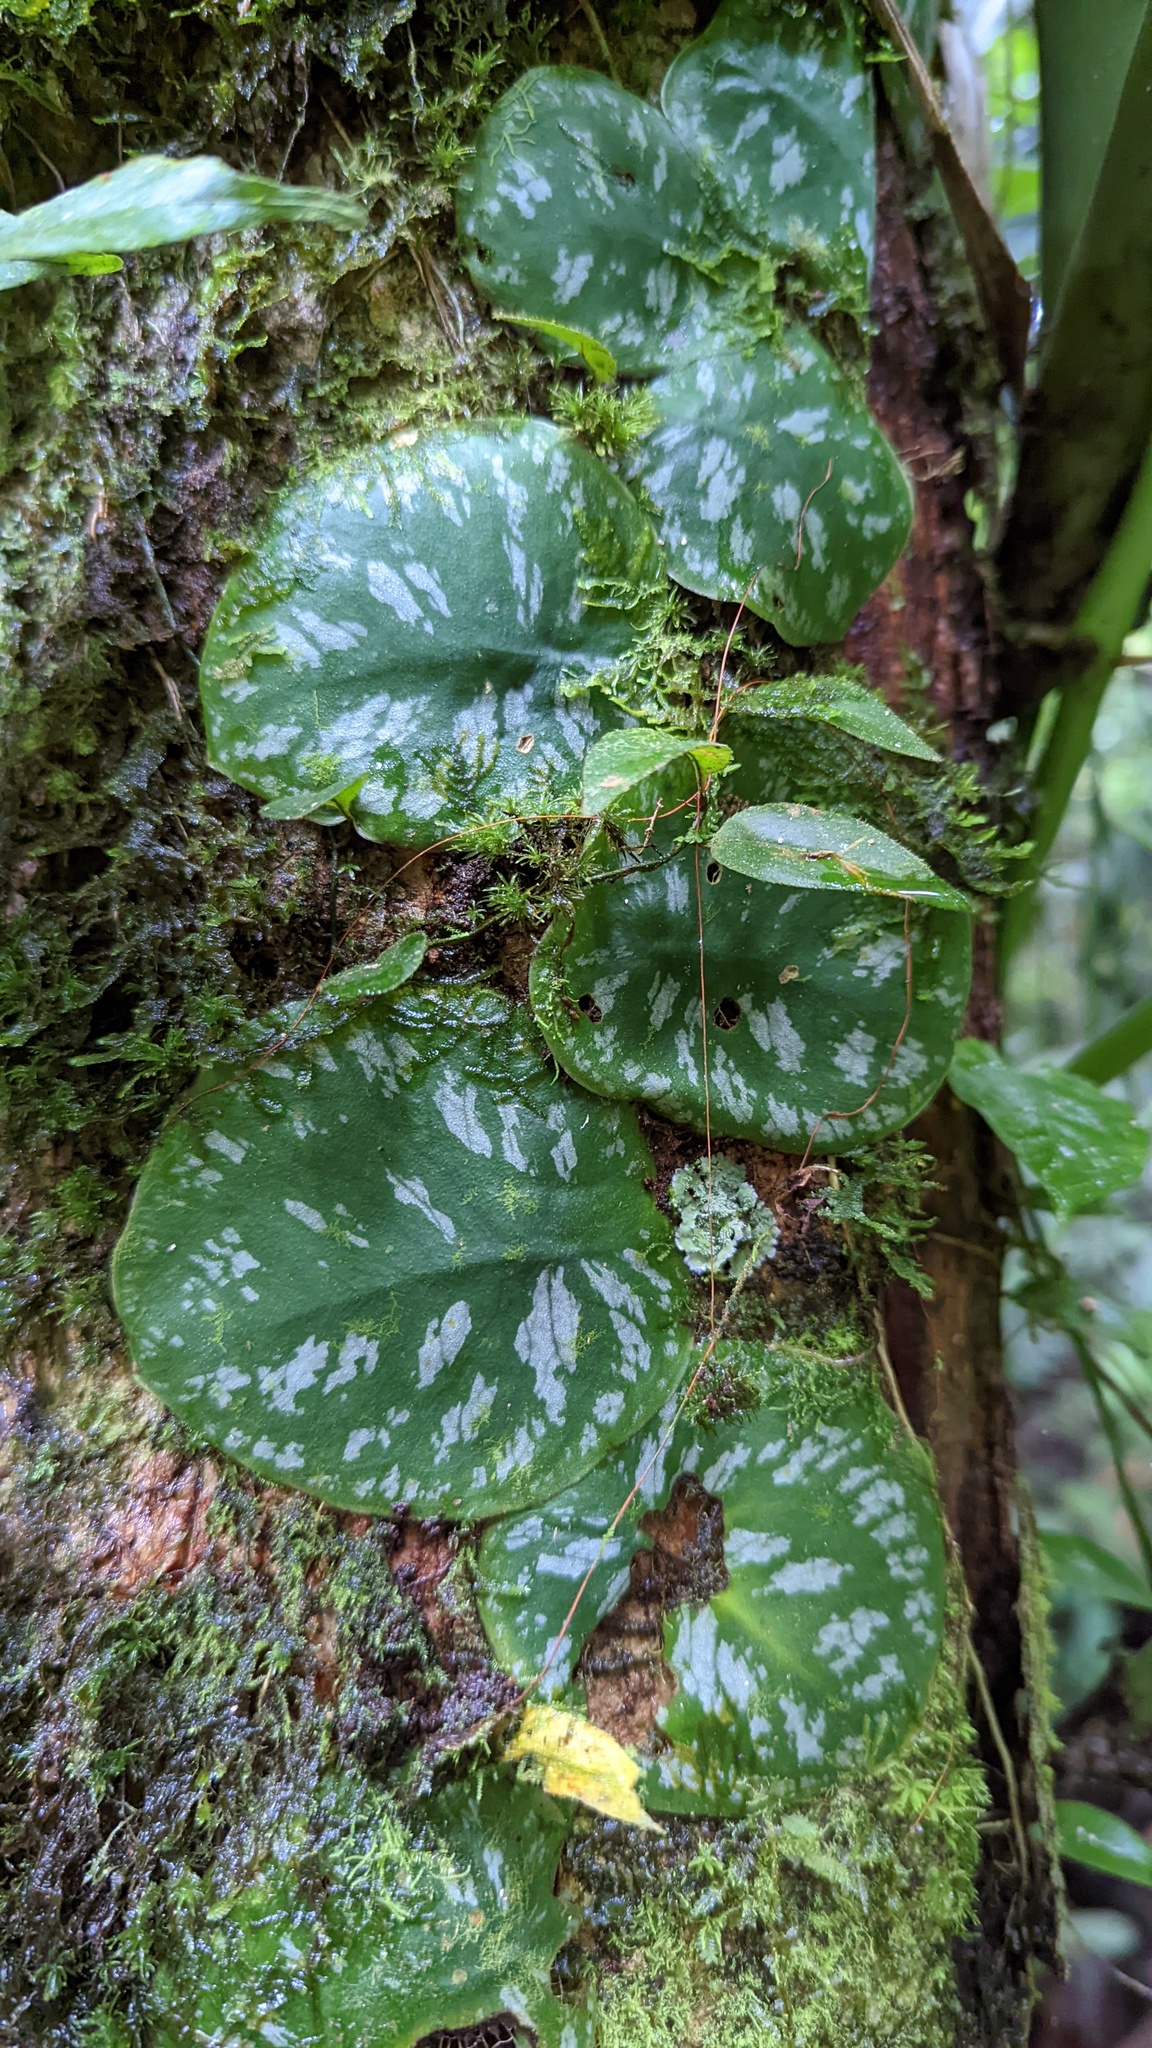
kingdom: Plantae
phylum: Tracheophyta
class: Liliopsida
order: Alismatales
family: Araceae
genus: Monstera
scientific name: Monstera tuberculata
